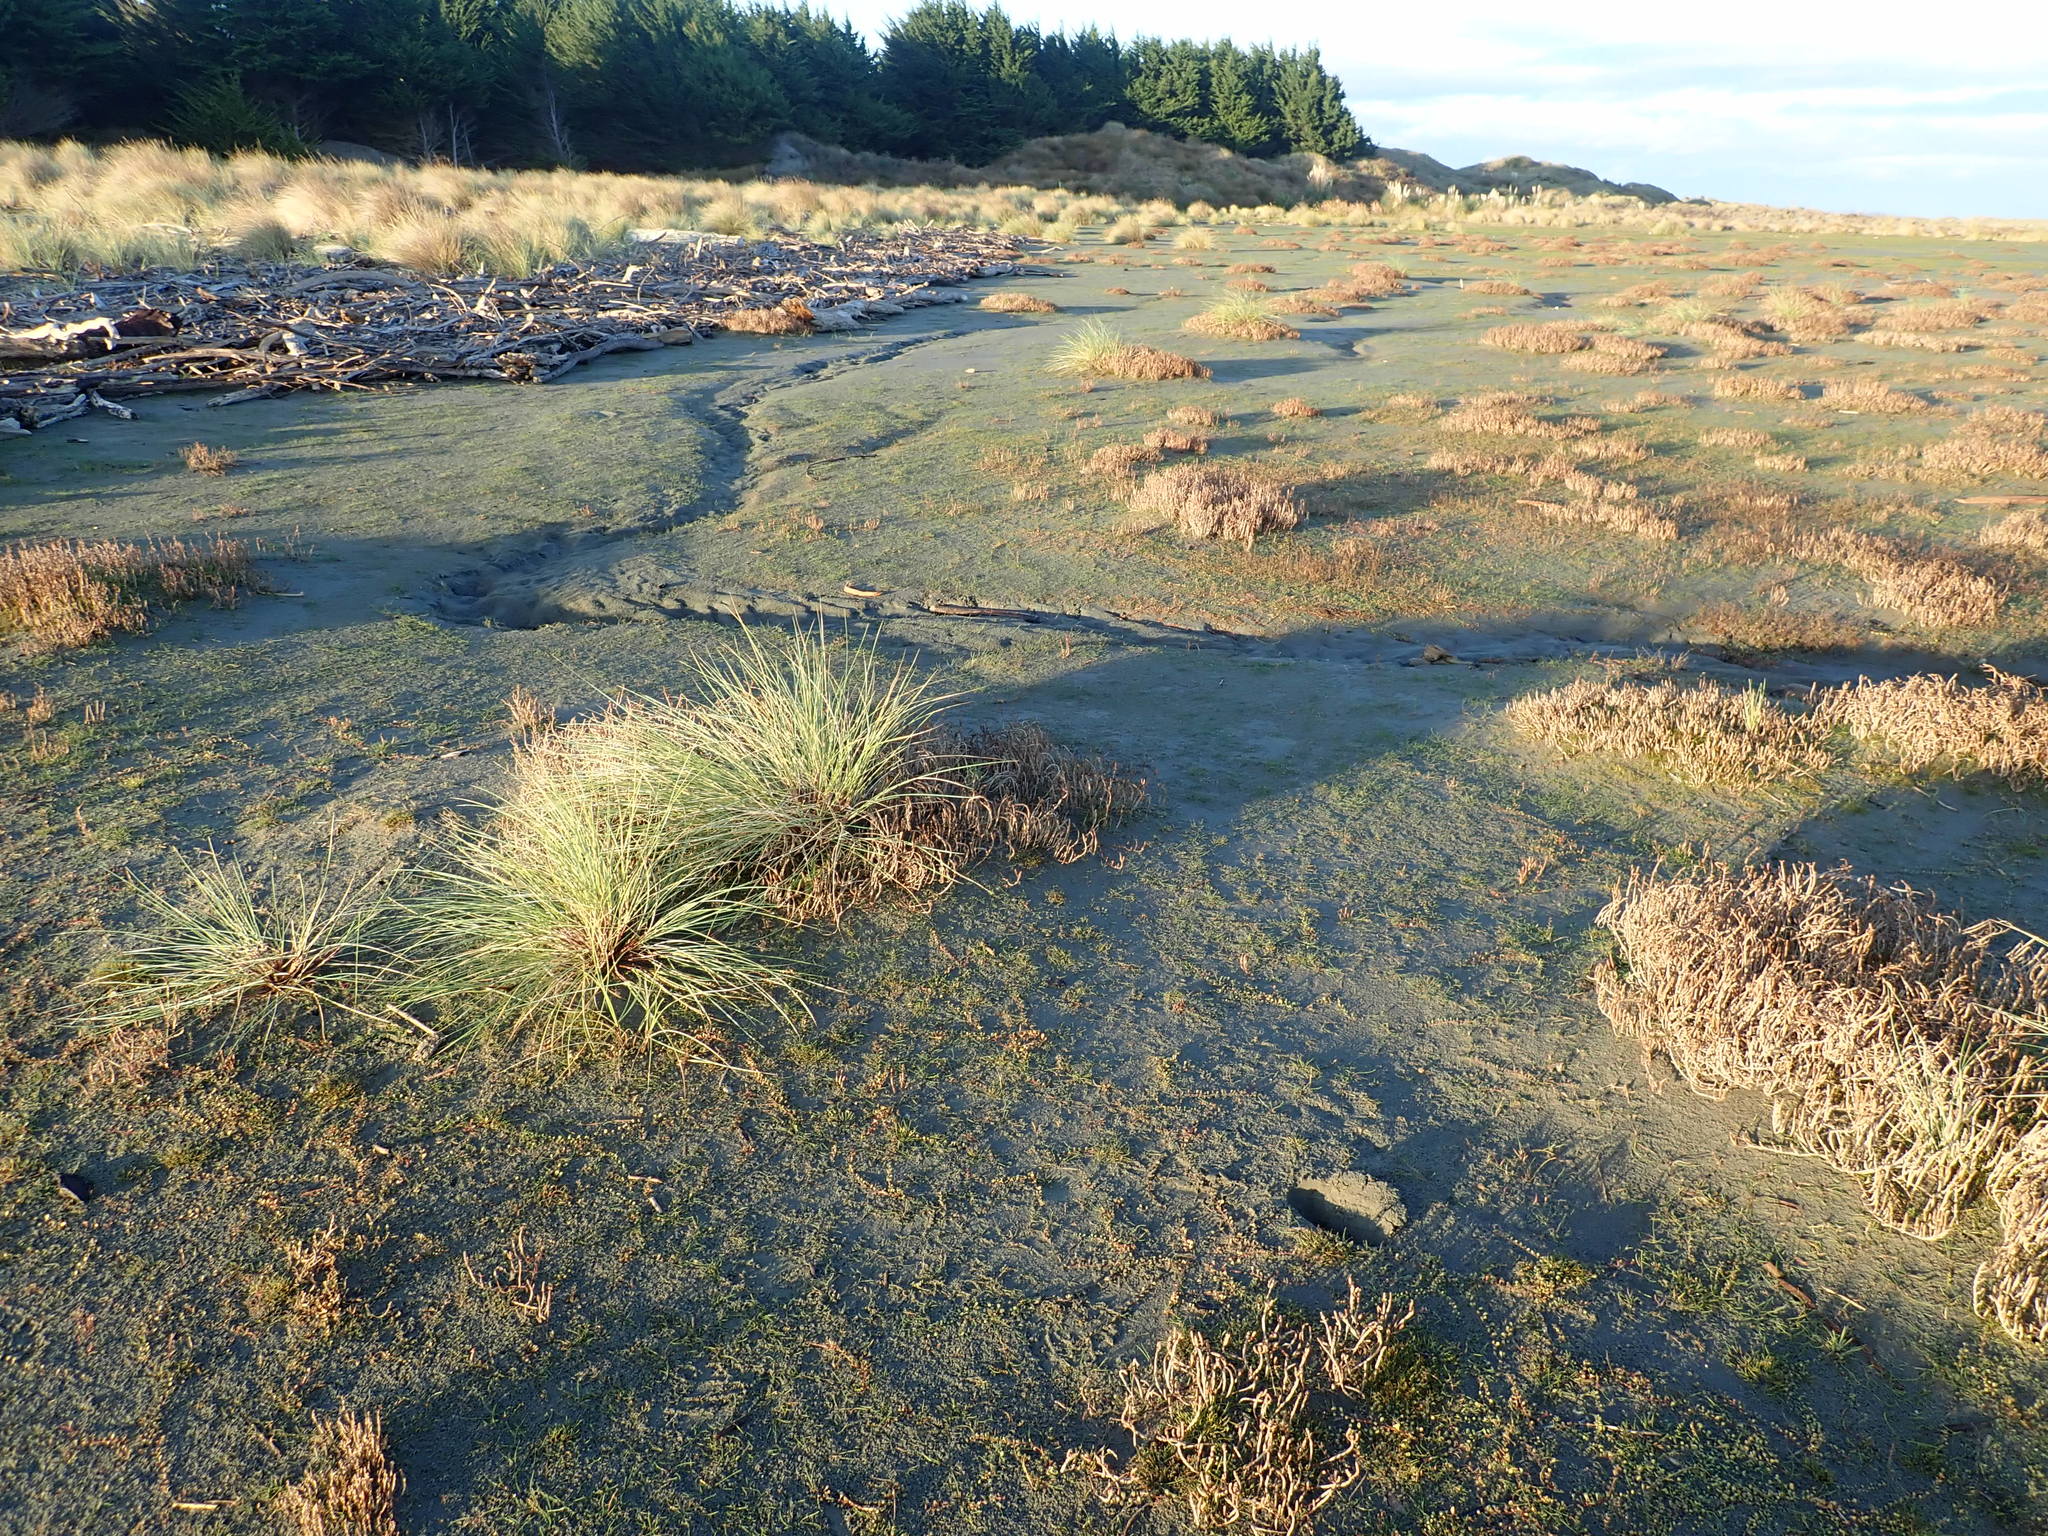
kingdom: Plantae
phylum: Tracheophyta
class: Liliopsida
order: Poales
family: Poaceae
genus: Calamagrostis
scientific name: Calamagrostis arenaria
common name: European beachgrass
